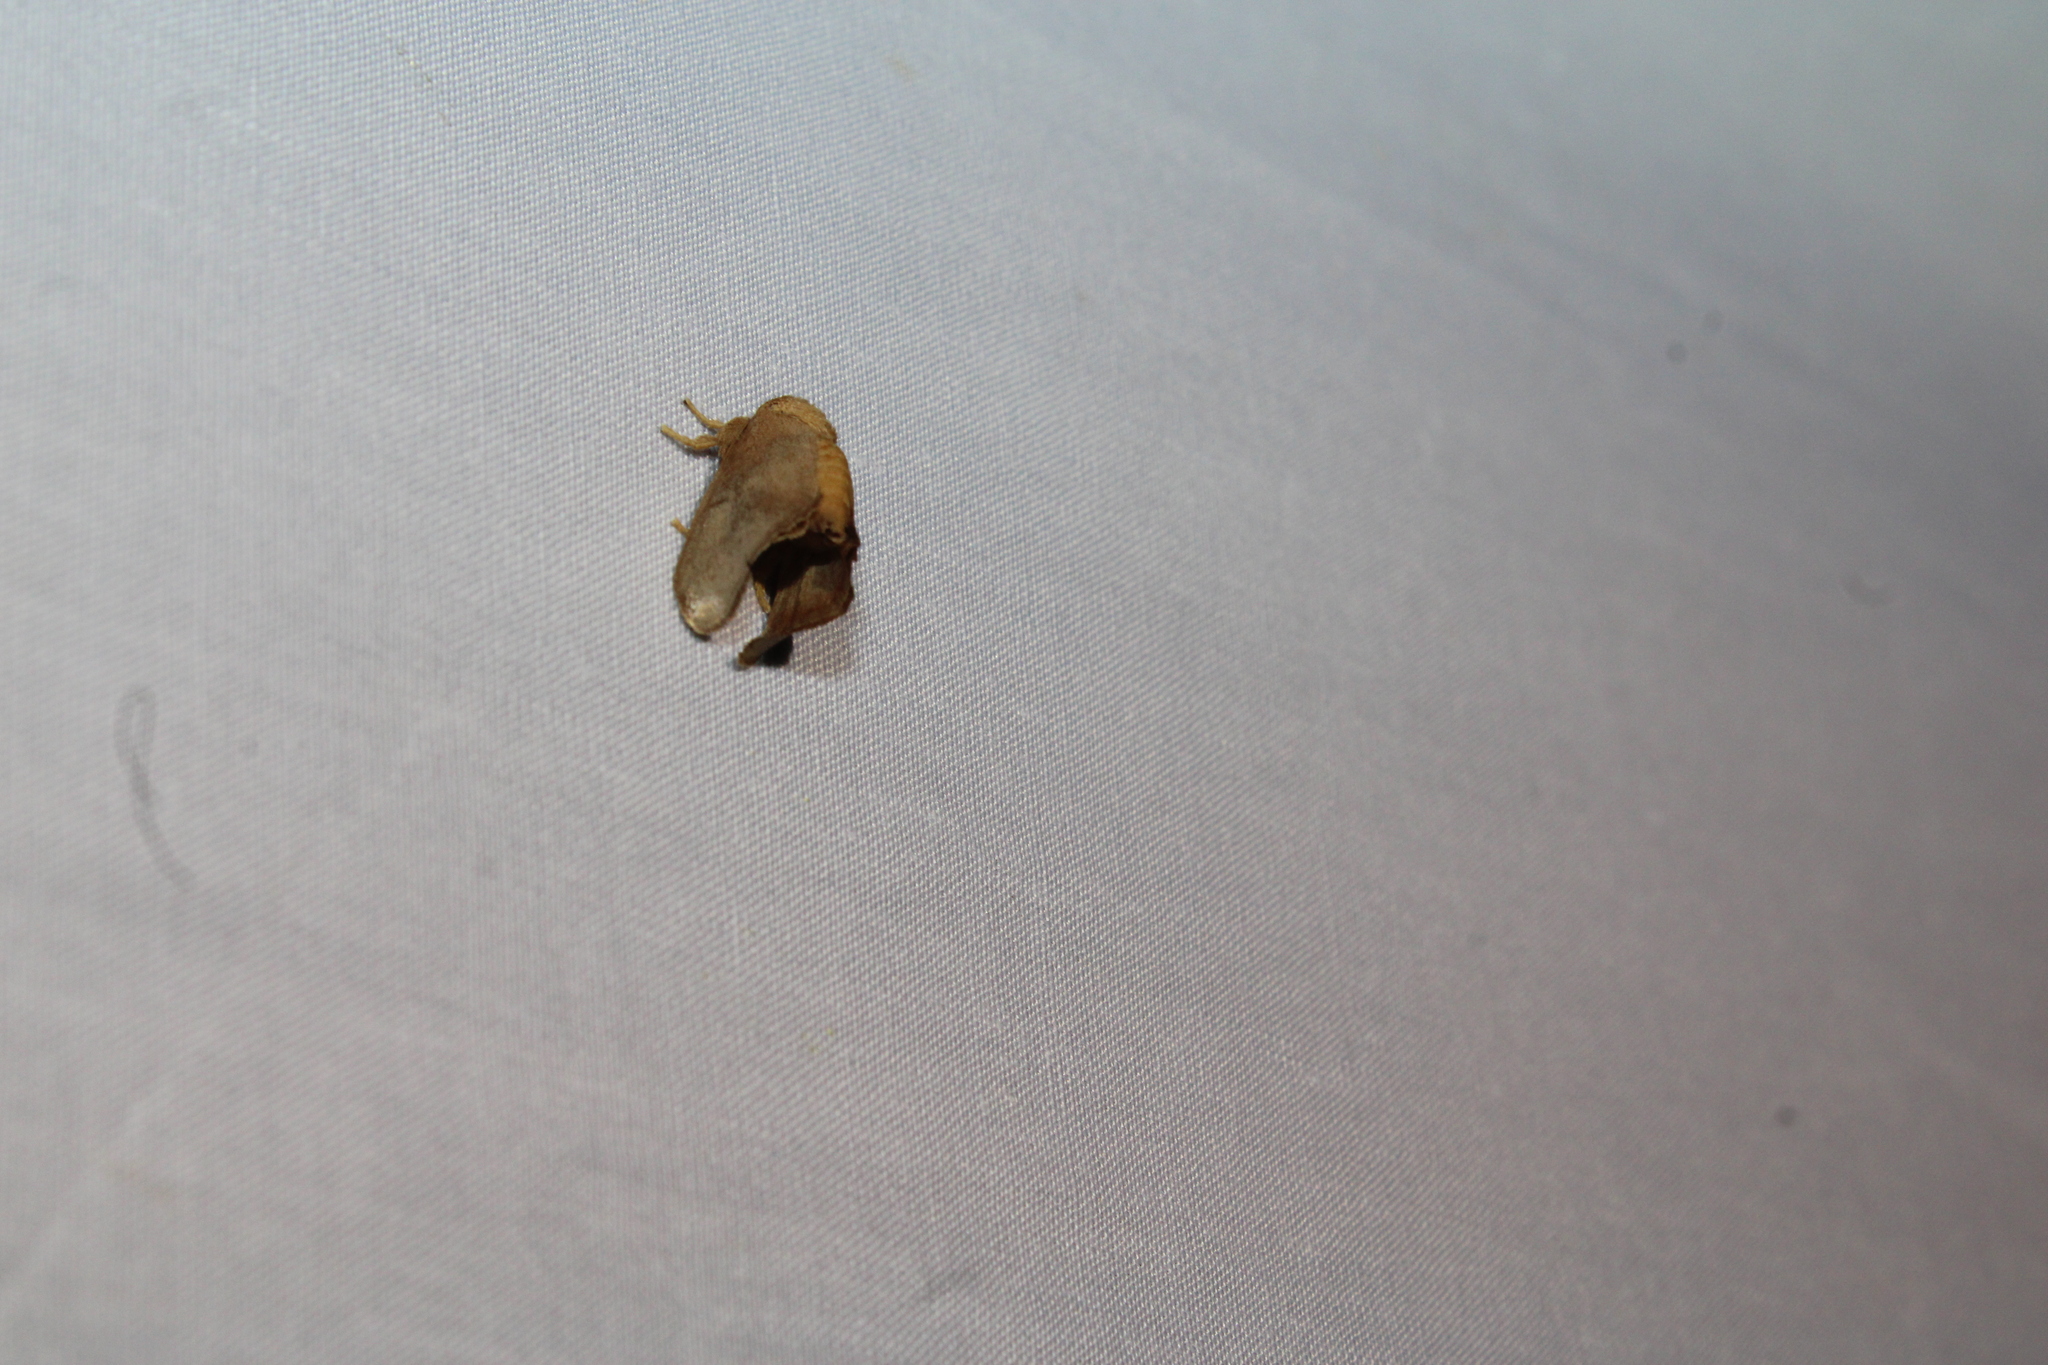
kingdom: Animalia
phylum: Arthropoda
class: Insecta
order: Lepidoptera
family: Limacodidae
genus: Isa
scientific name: Isa textula
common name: Crowned slug moth
